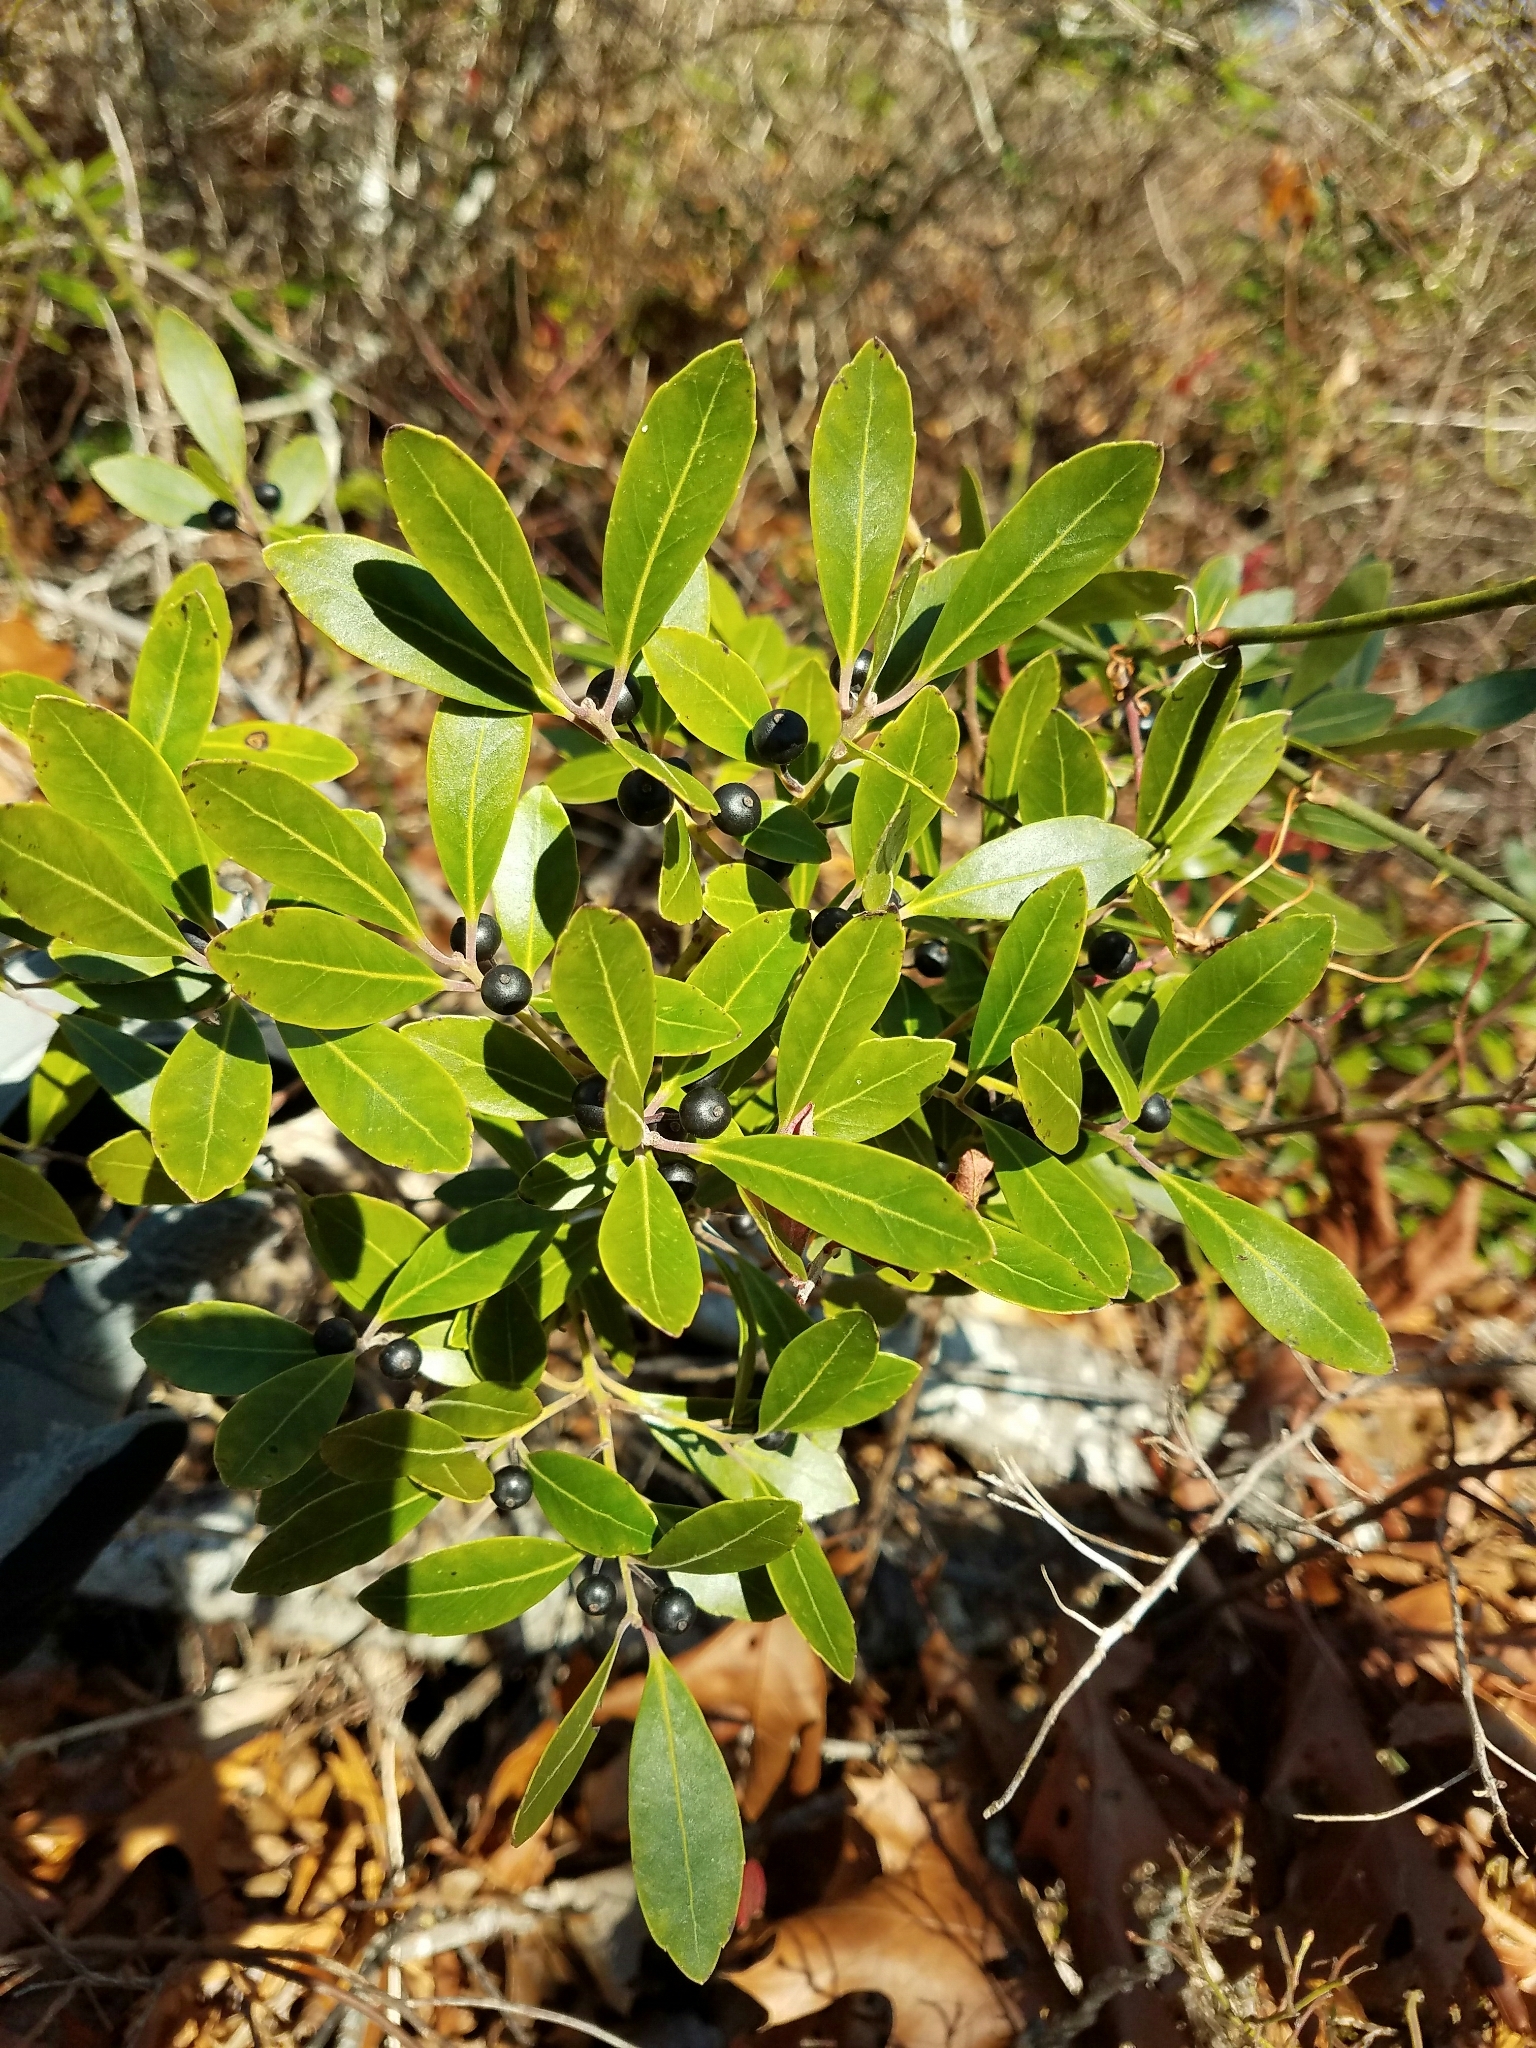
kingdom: Plantae
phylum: Tracheophyta
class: Magnoliopsida
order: Aquifoliales
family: Aquifoliaceae
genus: Ilex
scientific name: Ilex glabra
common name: Bitter gallberry
